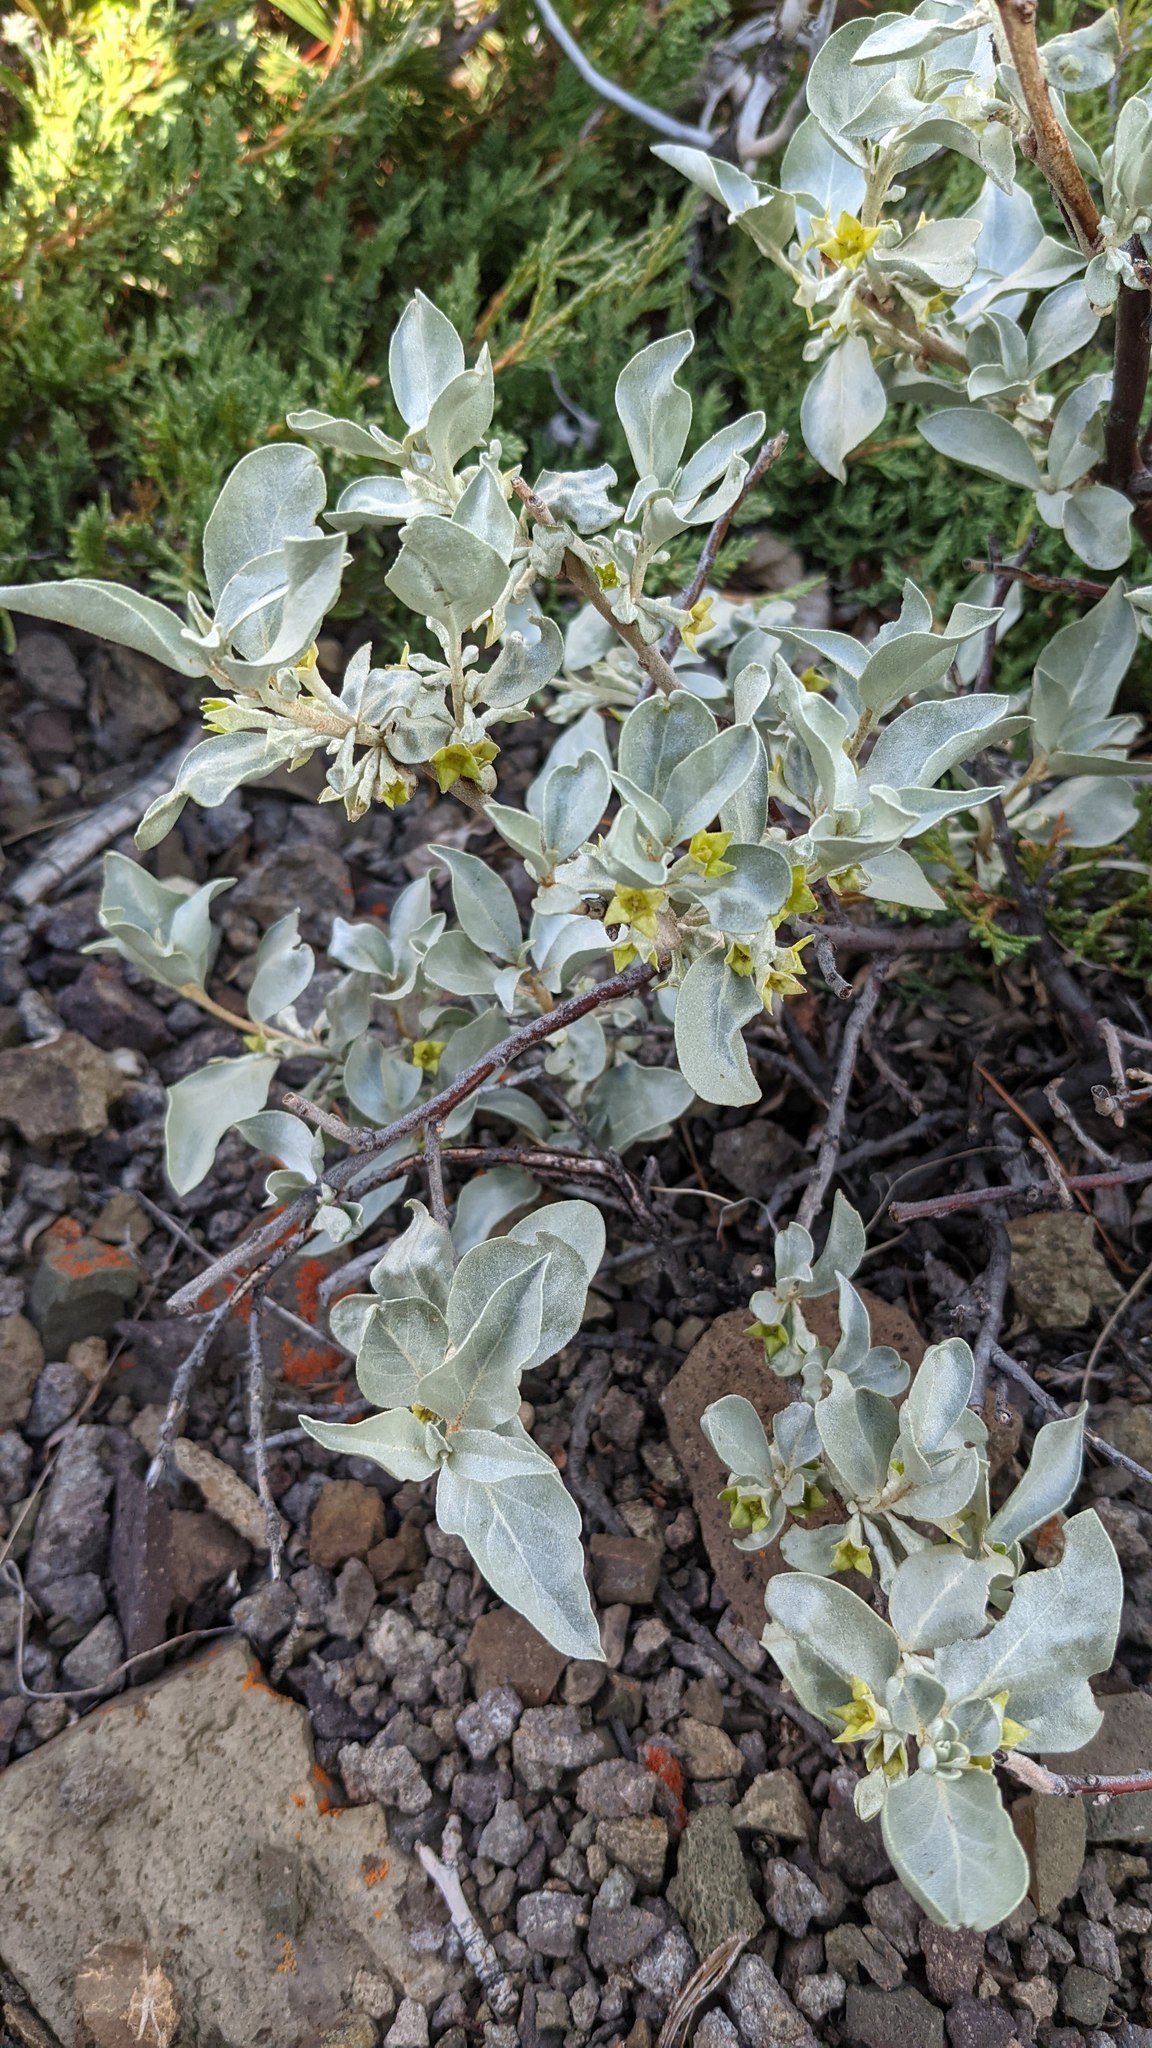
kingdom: Plantae
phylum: Tracheophyta
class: Magnoliopsida
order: Rosales
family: Elaeagnaceae
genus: Elaeagnus
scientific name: Elaeagnus commutata
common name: Silverberry
